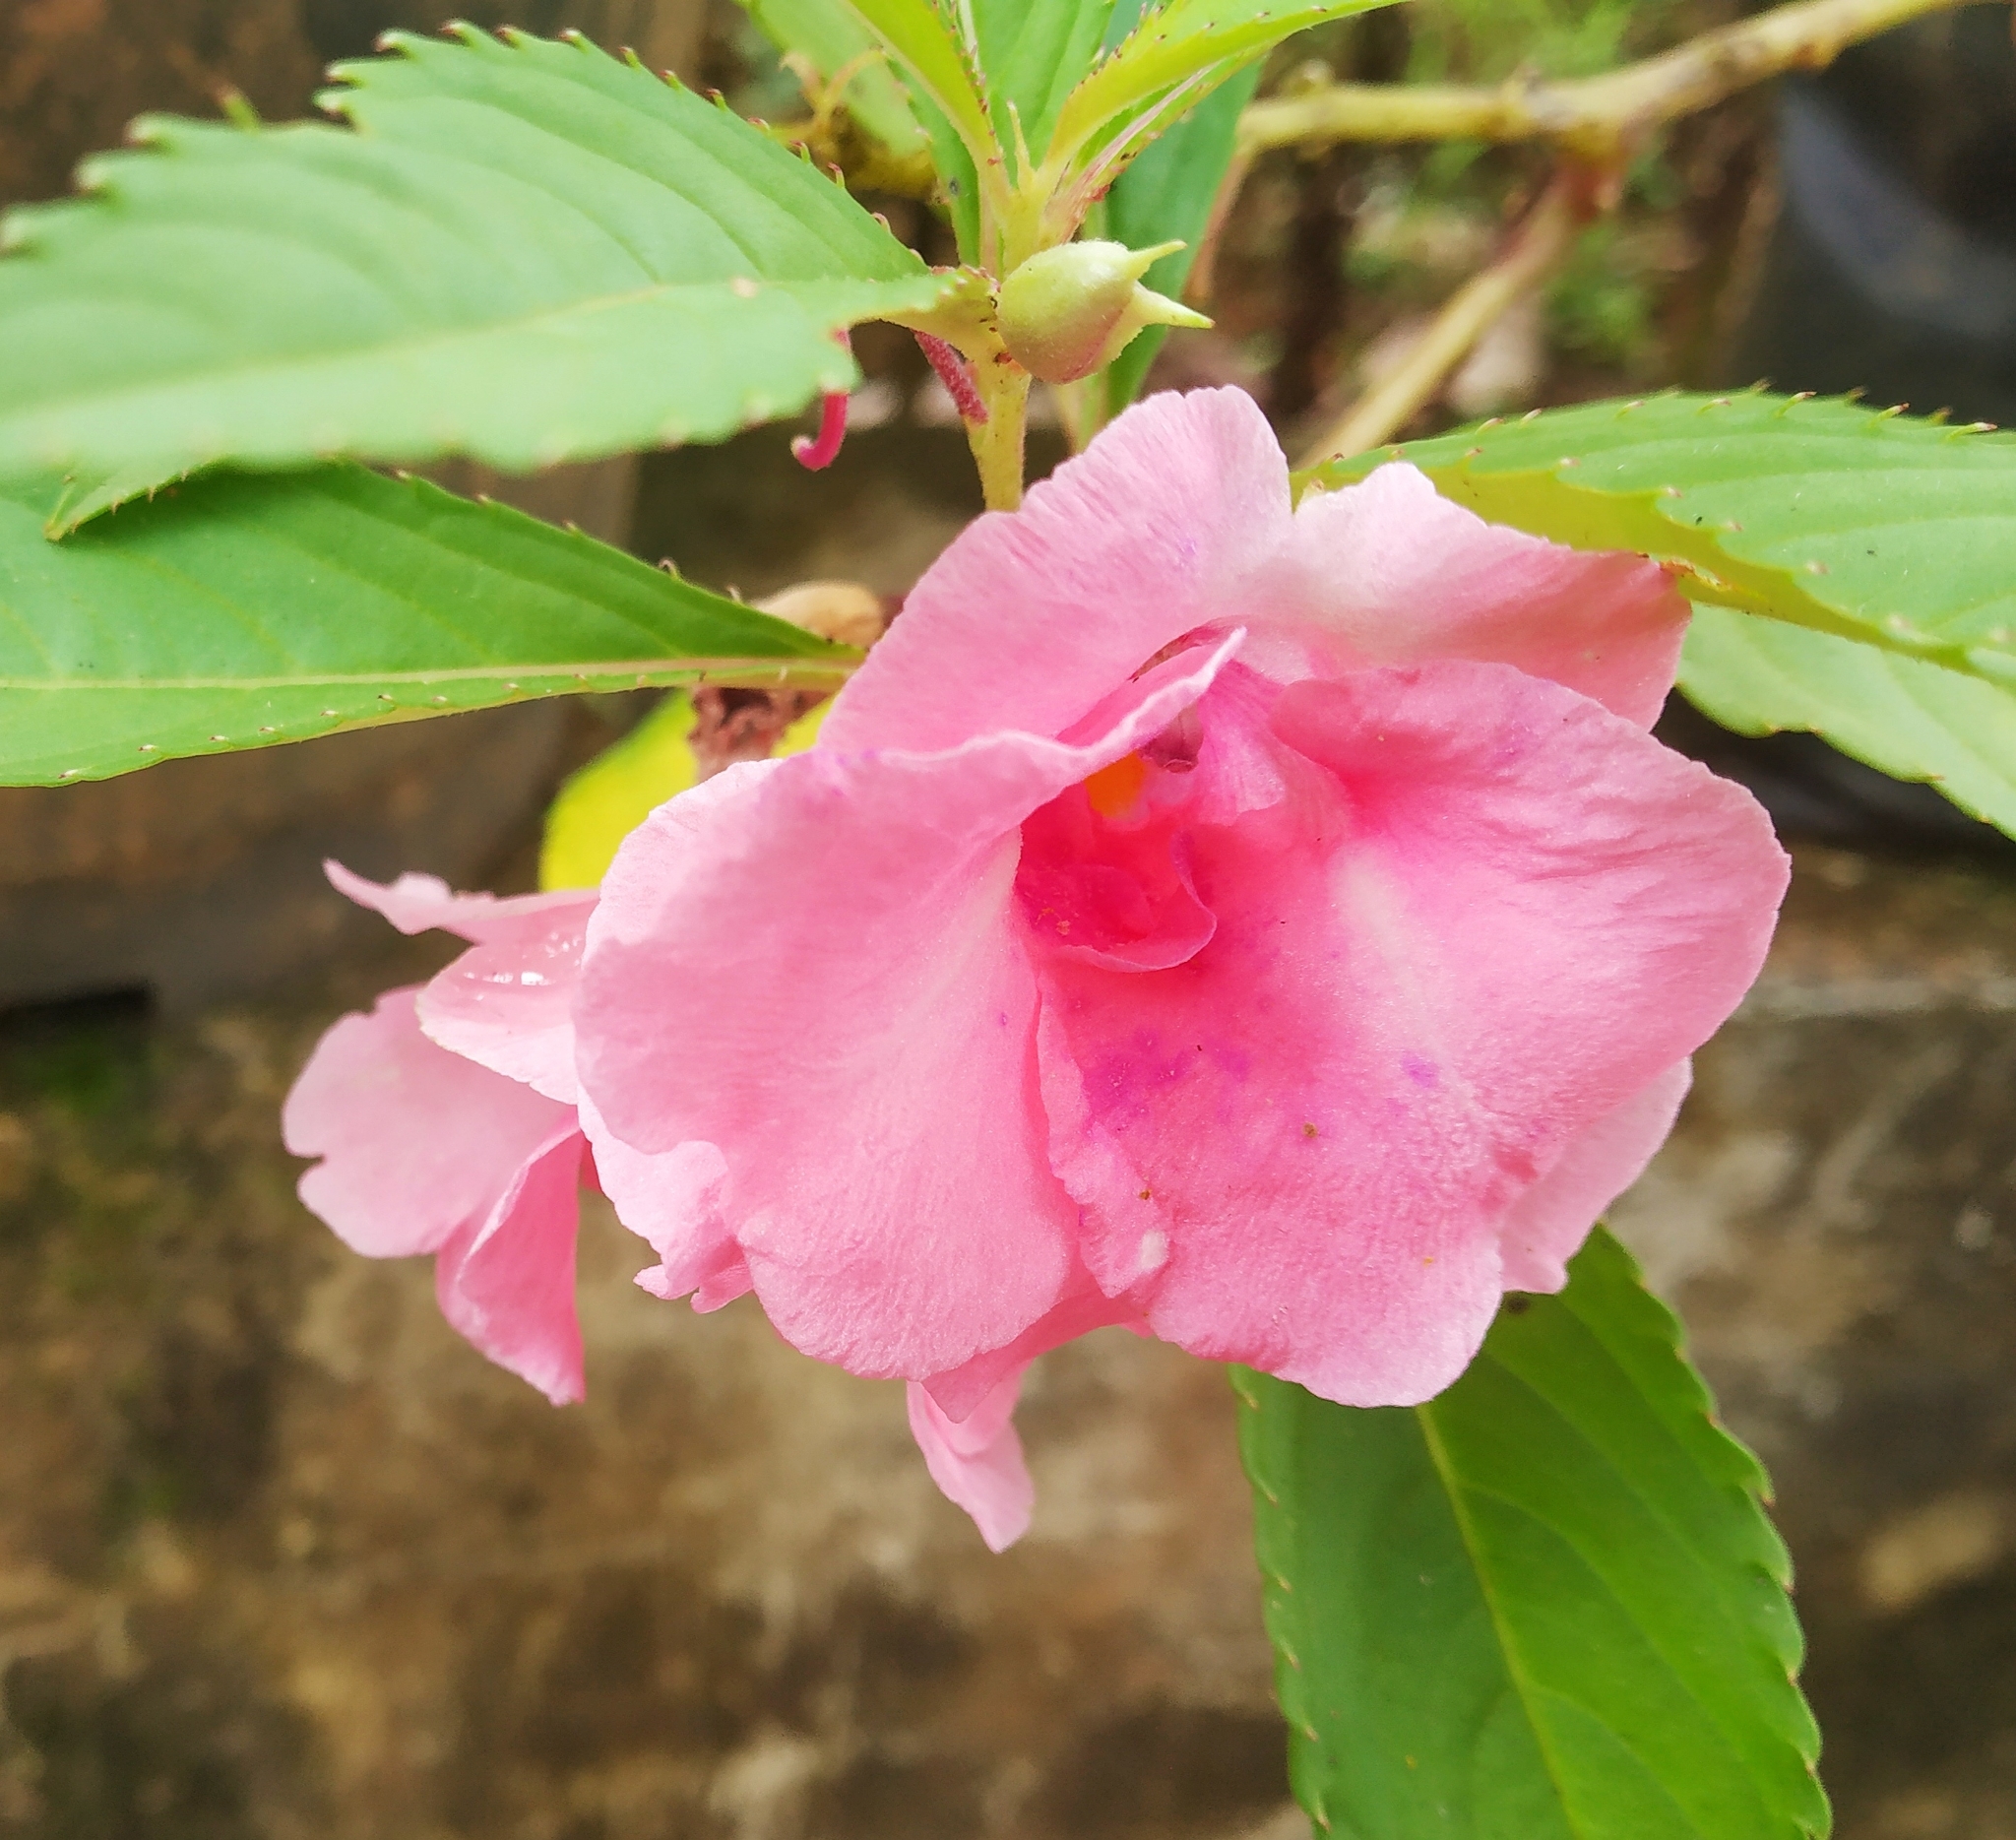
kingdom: Plantae
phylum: Tracheophyta
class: Magnoliopsida
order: Ericales
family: Balsaminaceae
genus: Impatiens
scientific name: Impatiens balsamina
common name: Balsam
